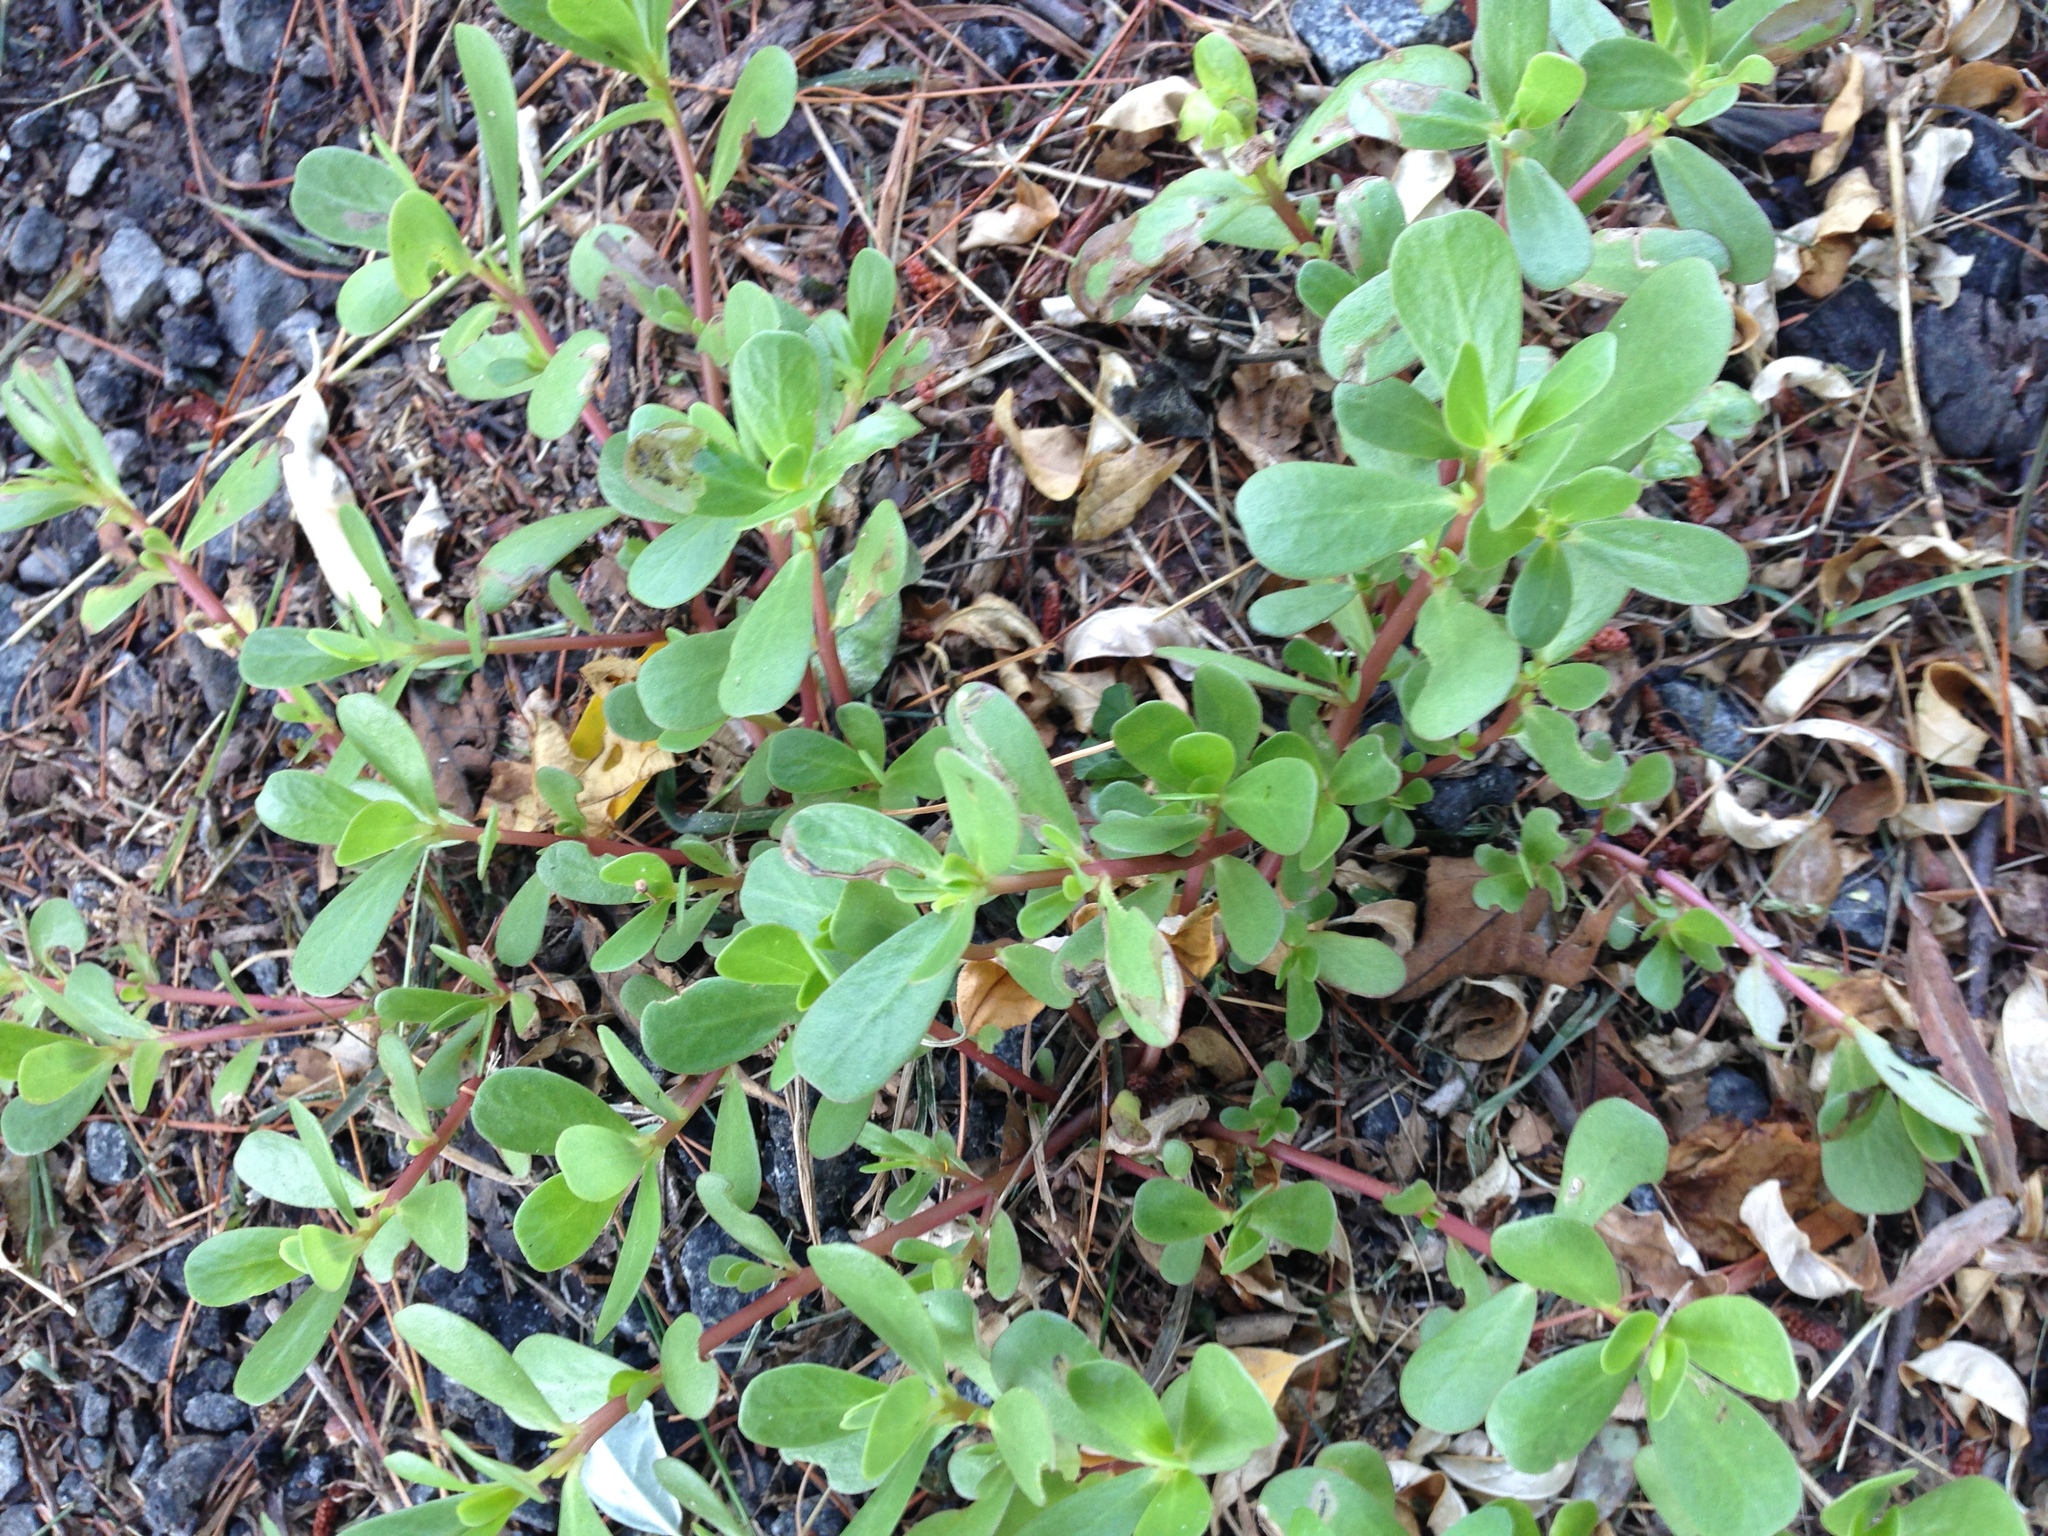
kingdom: Plantae
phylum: Tracheophyta
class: Magnoliopsida
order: Caryophyllales
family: Portulacaceae
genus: Portulaca
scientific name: Portulaca oleracea
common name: Common purslane
